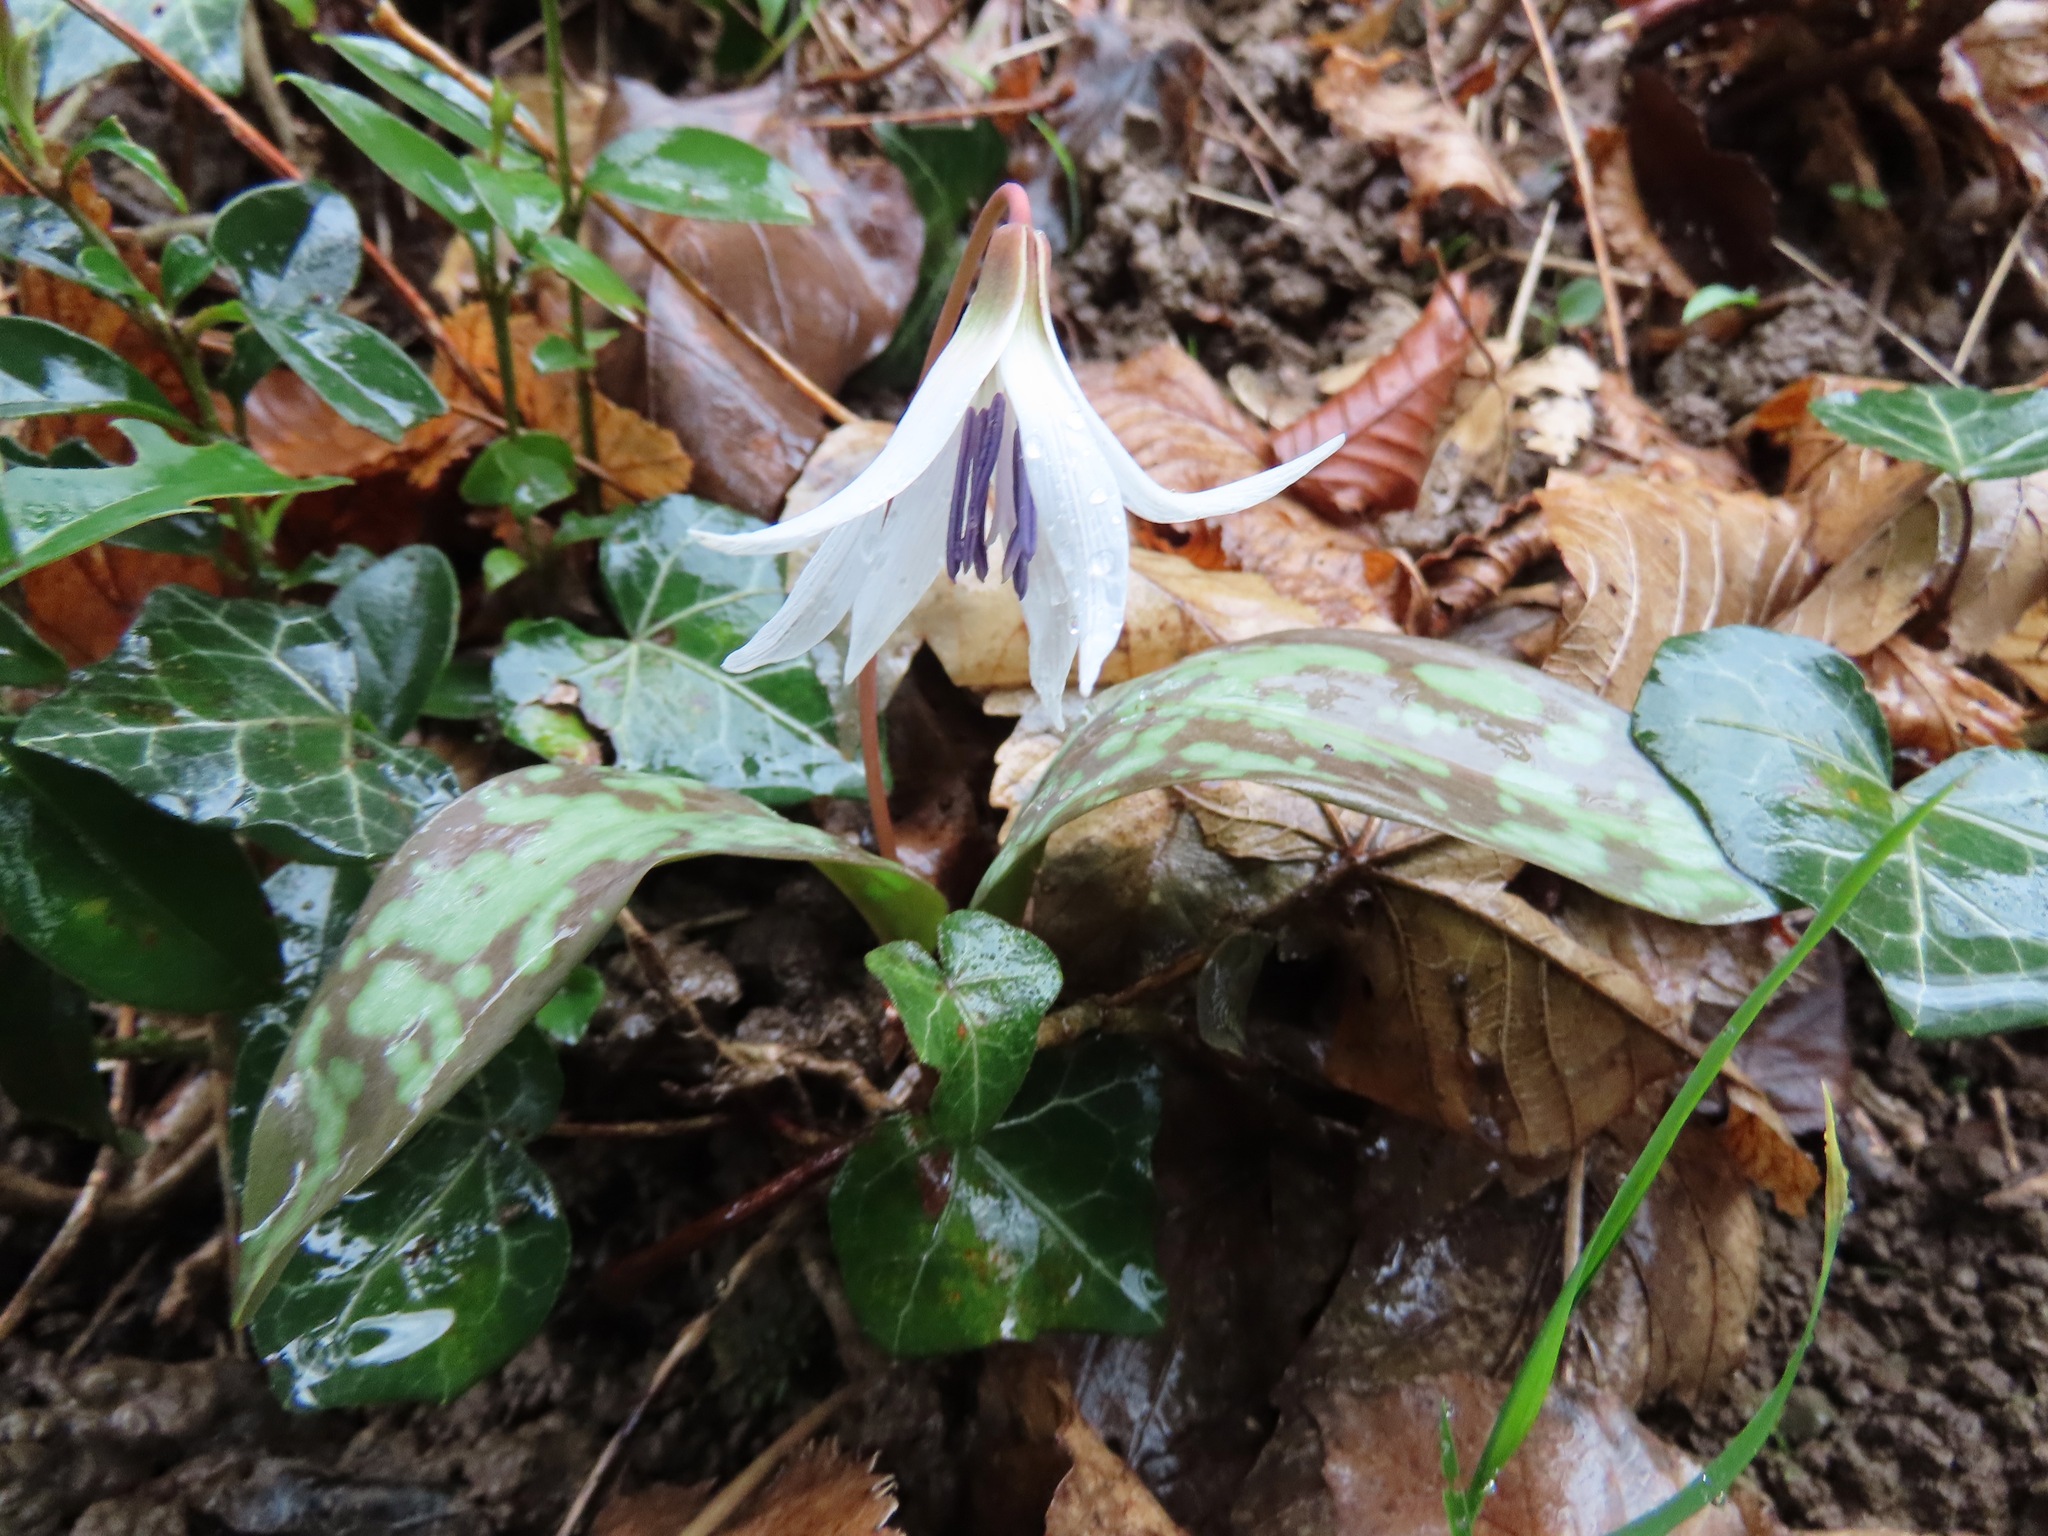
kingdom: Plantae
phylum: Tracheophyta
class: Liliopsida
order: Liliales
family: Liliaceae
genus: Erythronium
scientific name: Erythronium dens-canis
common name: Dog's-tooth-violet
